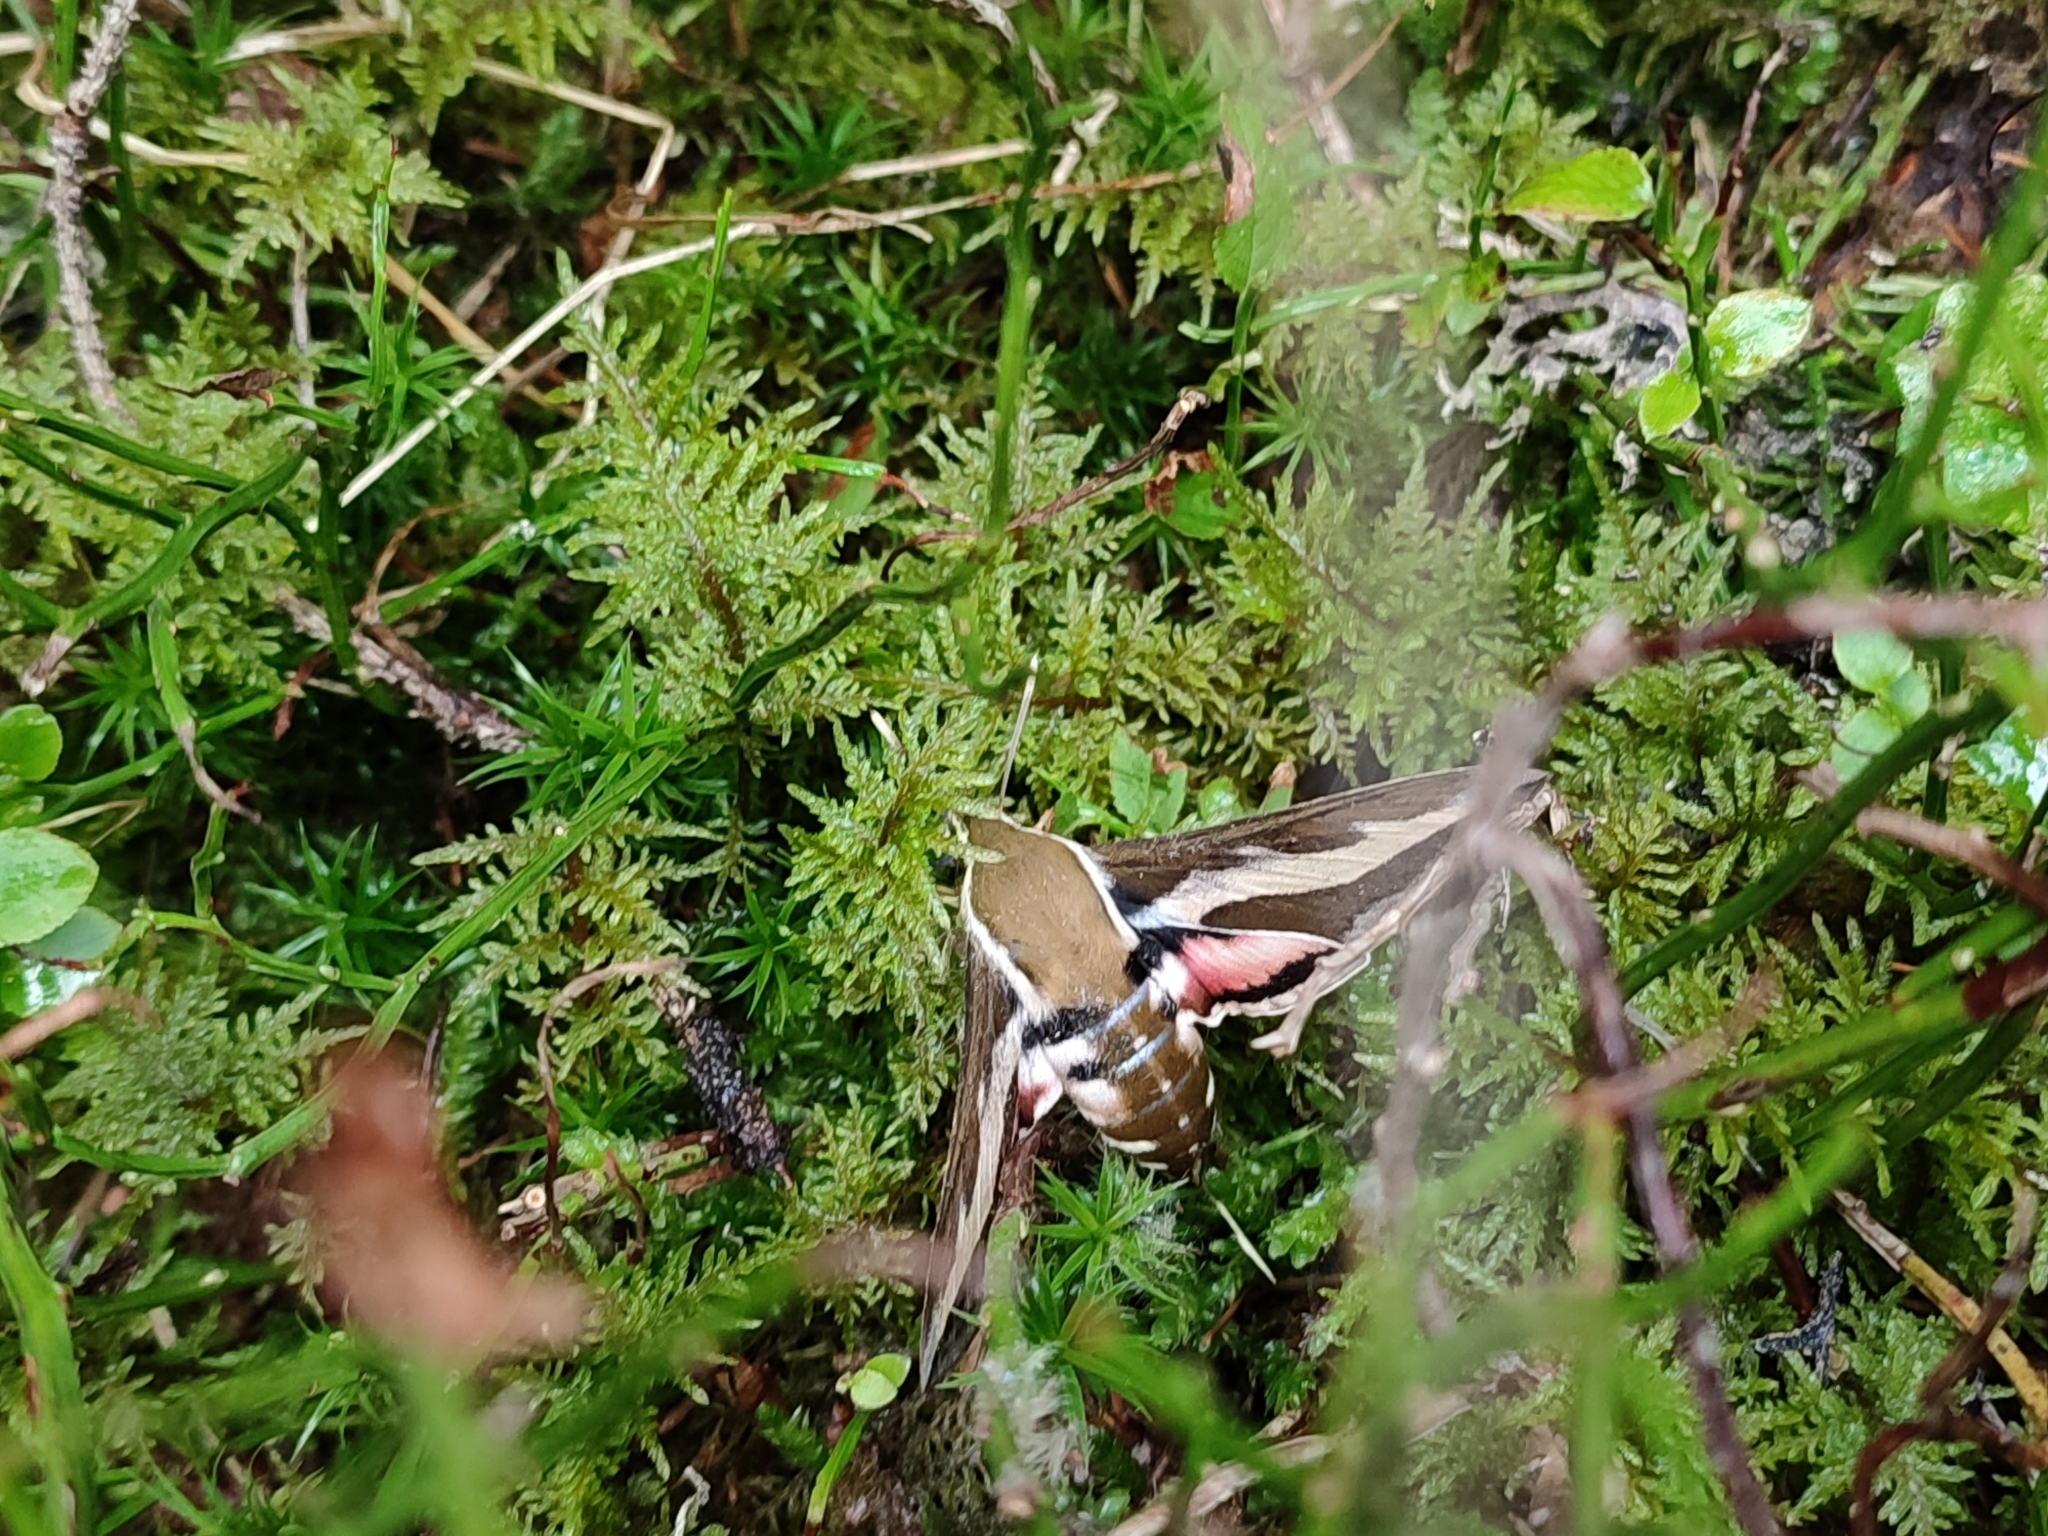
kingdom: Animalia
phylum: Arthropoda
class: Insecta
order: Lepidoptera
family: Sphingidae
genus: Hyles
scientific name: Hyles gallii
